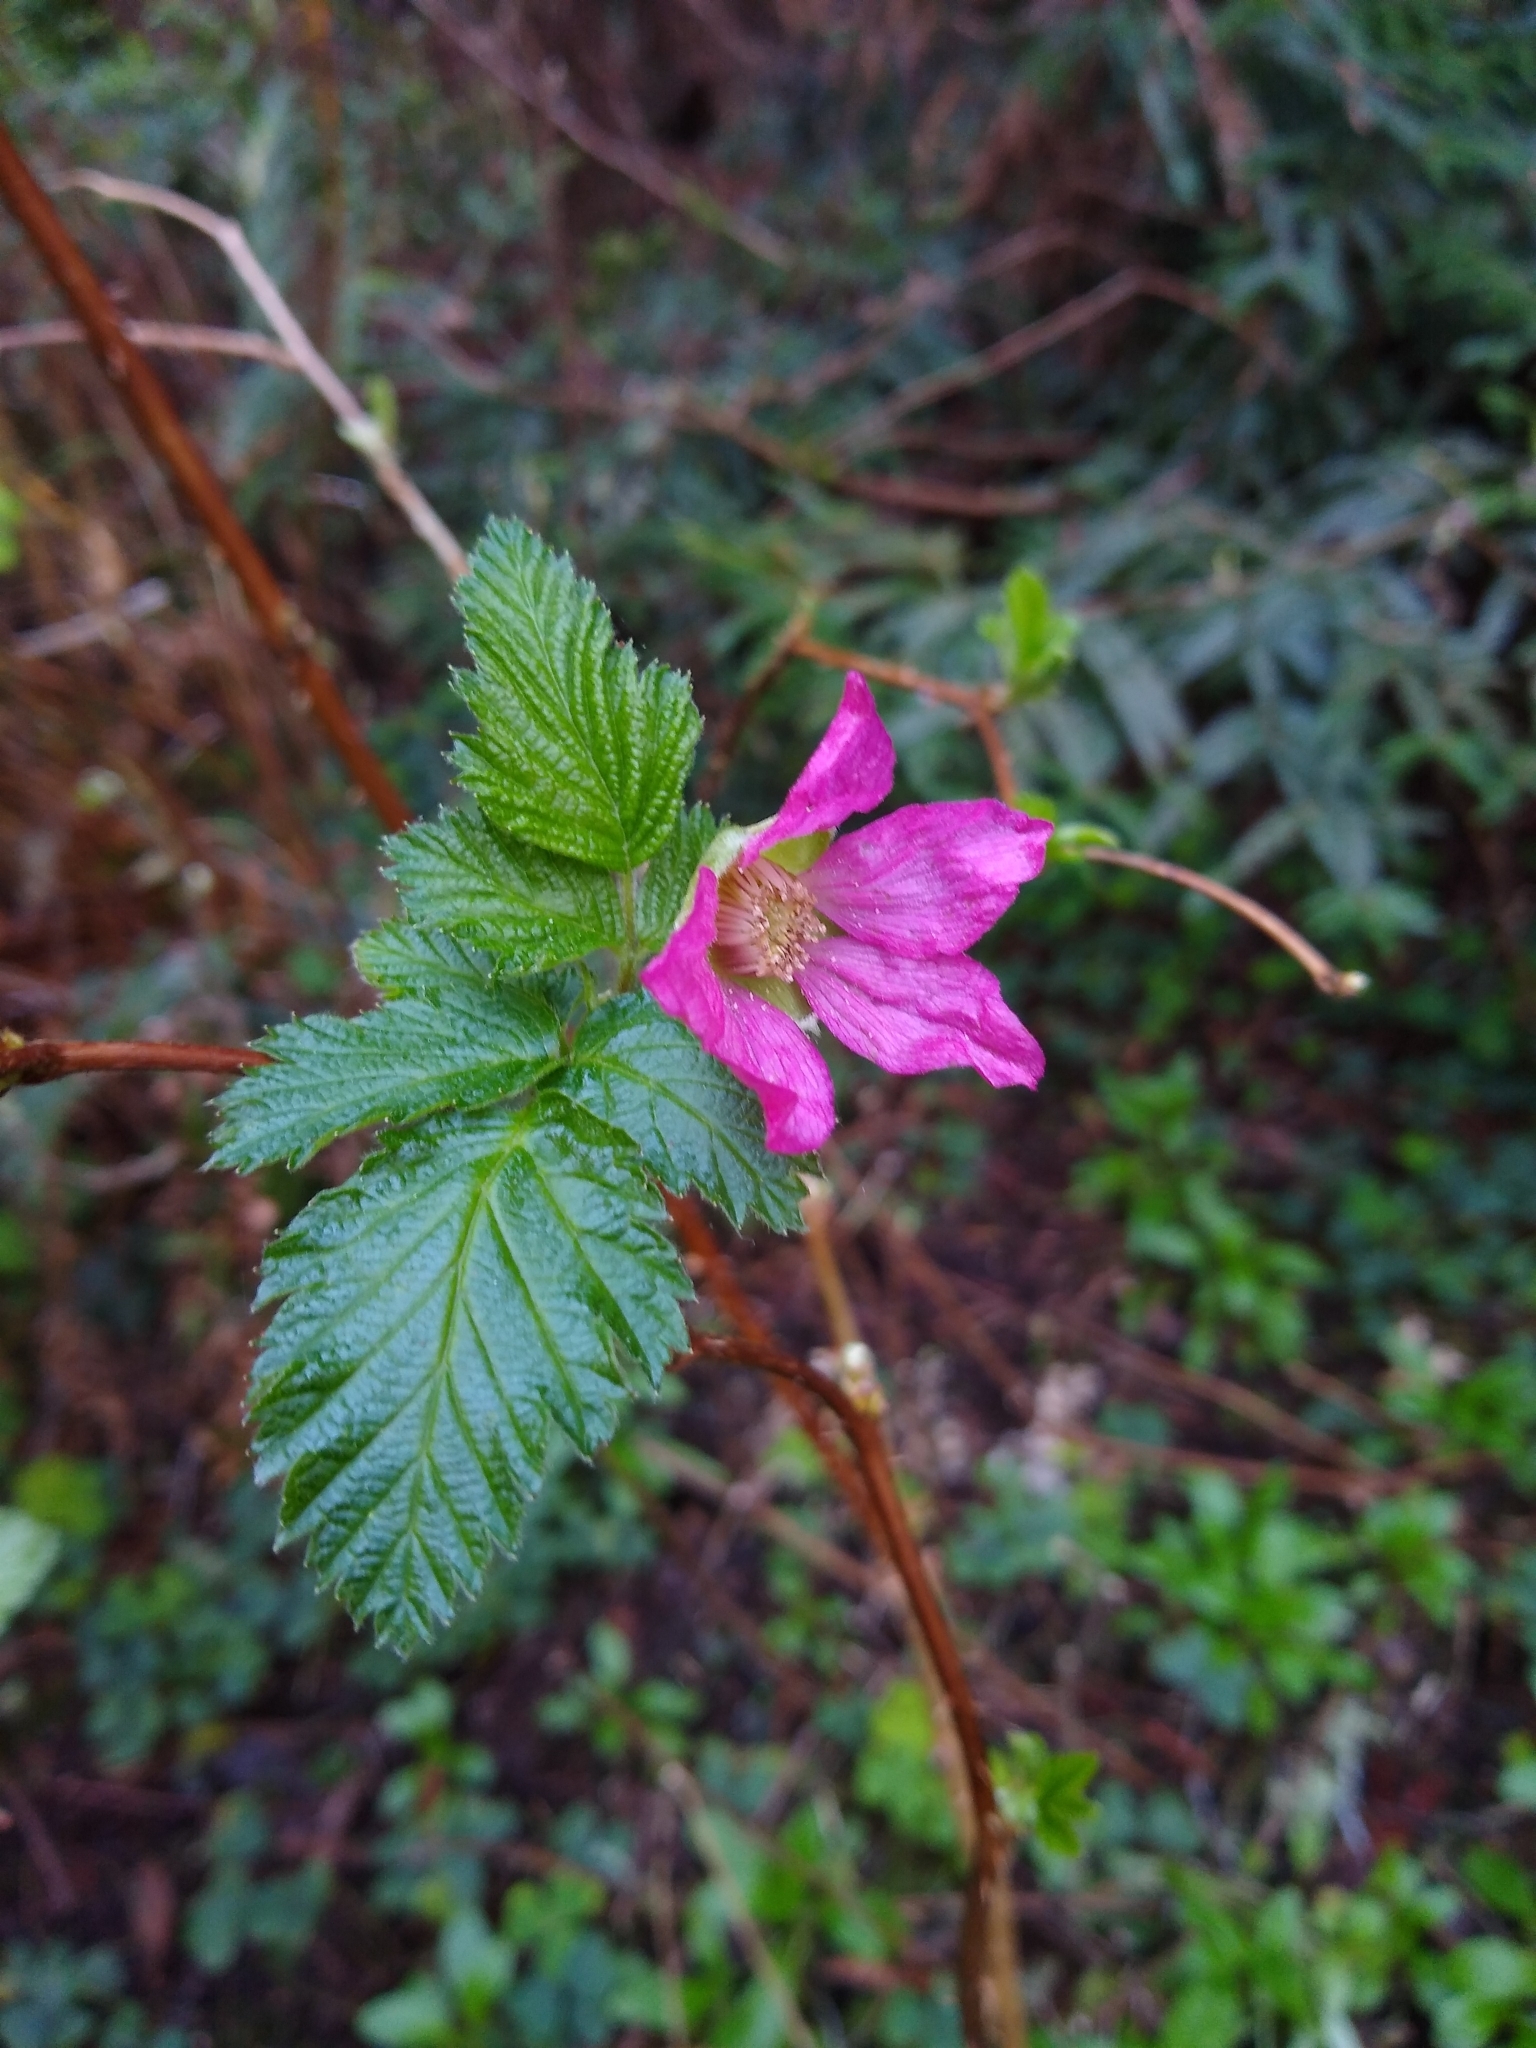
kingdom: Plantae
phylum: Tracheophyta
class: Magnoliopsida
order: Rosales
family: Rosaceae
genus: Rubus
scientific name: Rubus spectabilis
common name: Salmonberry
